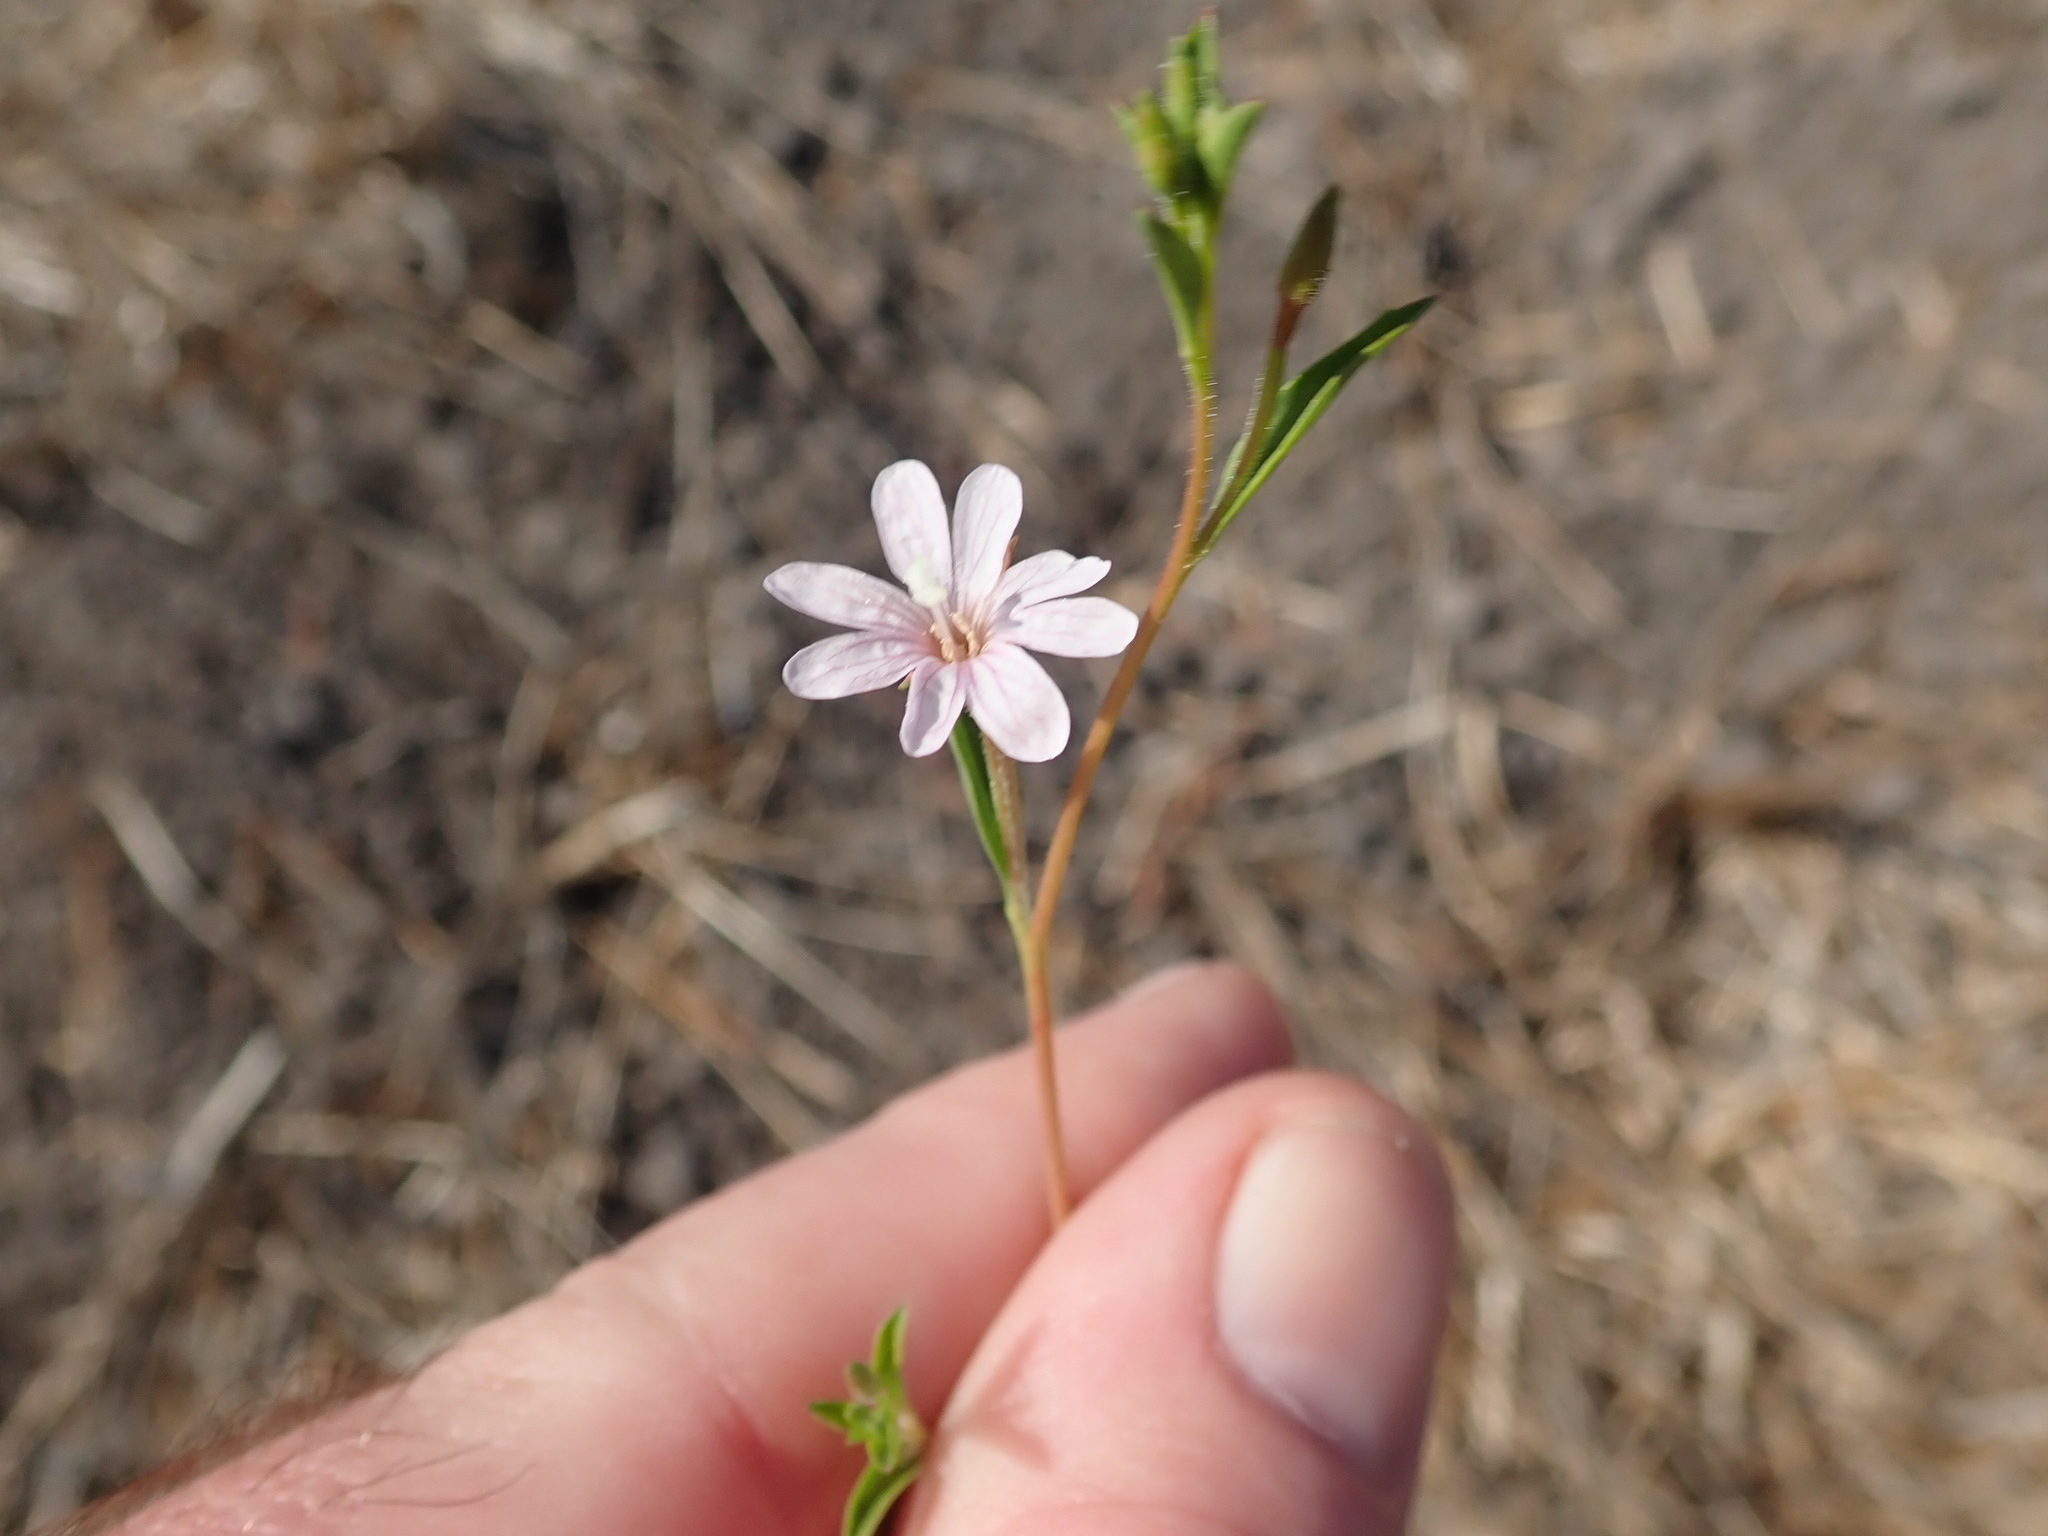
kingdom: Plantae
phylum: Tracheophyta
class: Magnoliopsida
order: Myrtales
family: Onagraceae
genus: Epilobium
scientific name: Epilobium brachycarpum
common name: Annual willowherb
